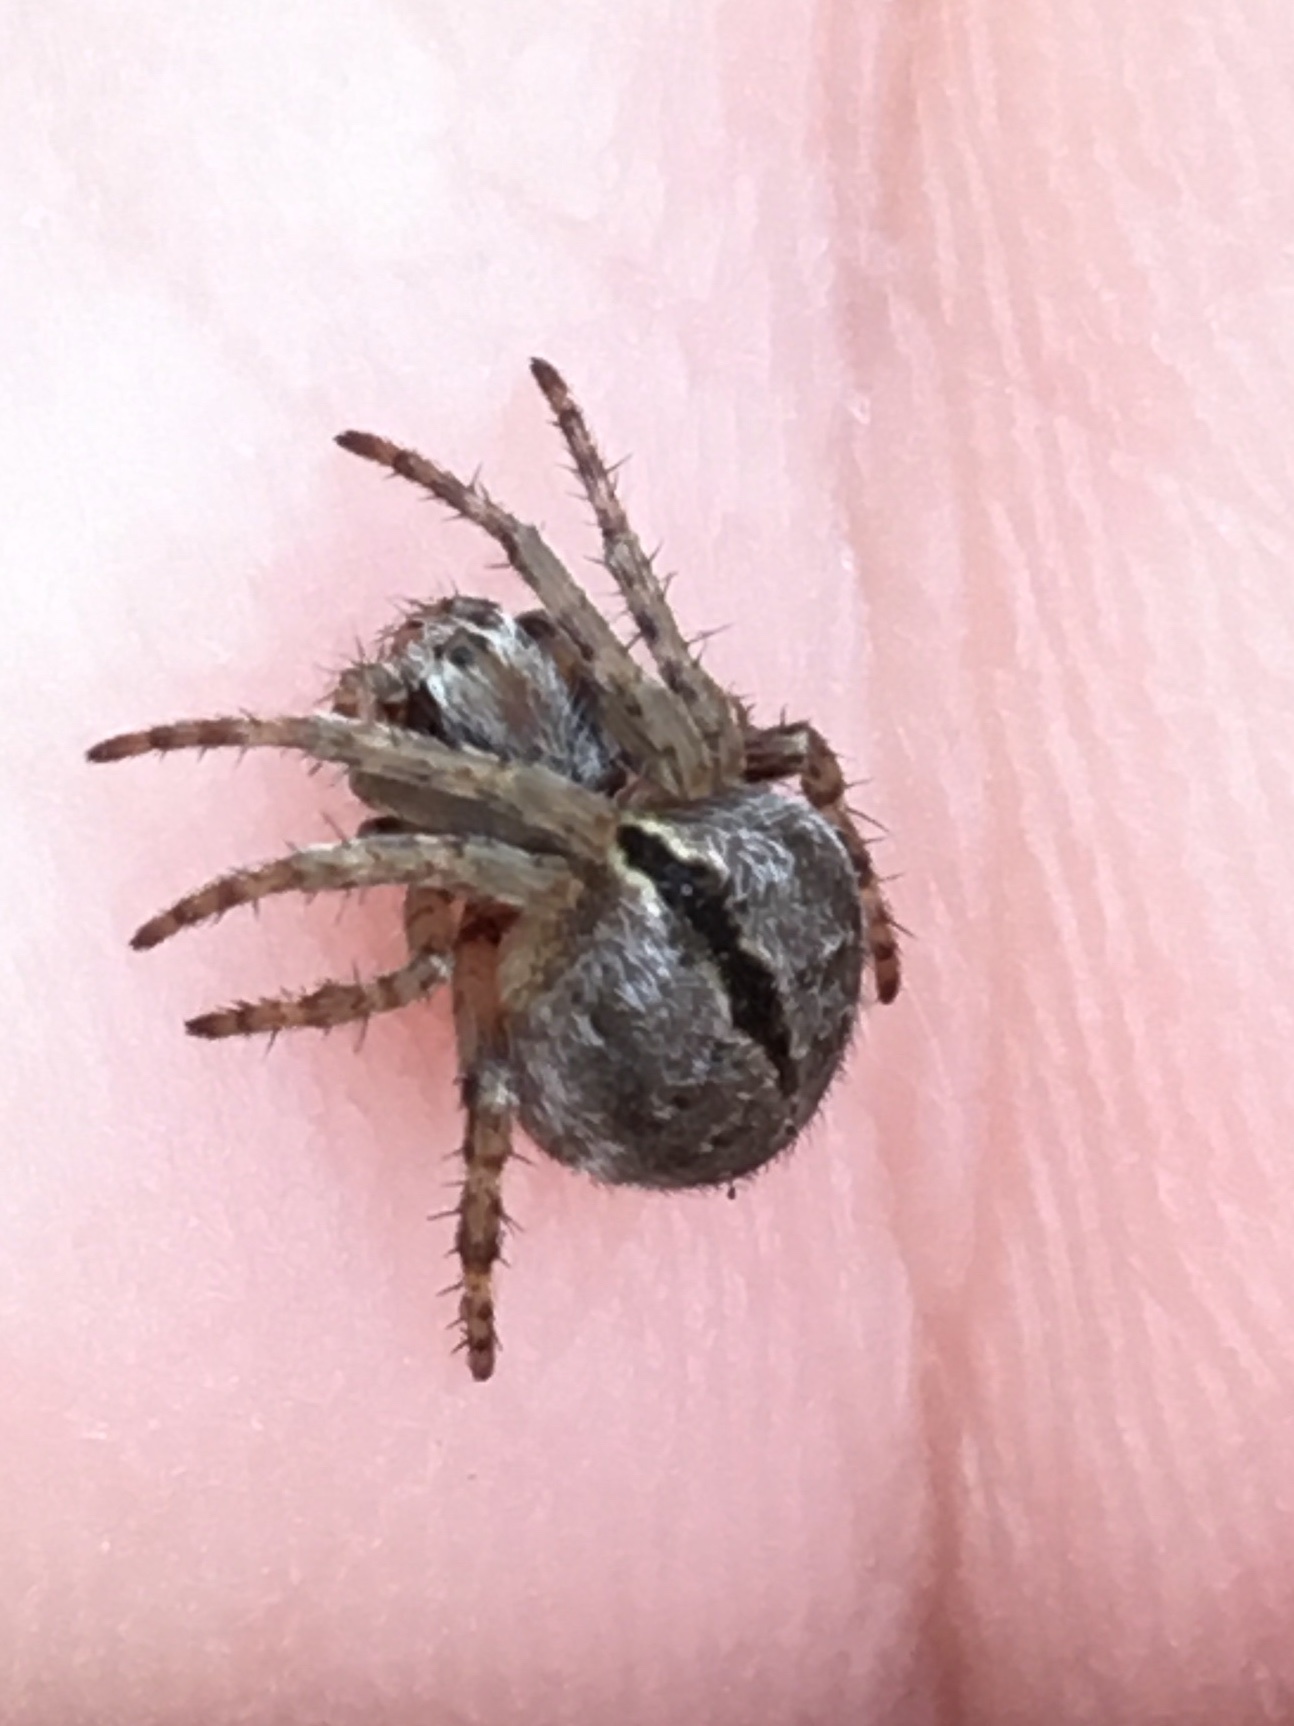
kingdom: Animalia
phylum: Arthropoda
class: Arachnida
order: Araneae
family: Araneidae
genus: Agalenatea
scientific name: Agalenatea redii
